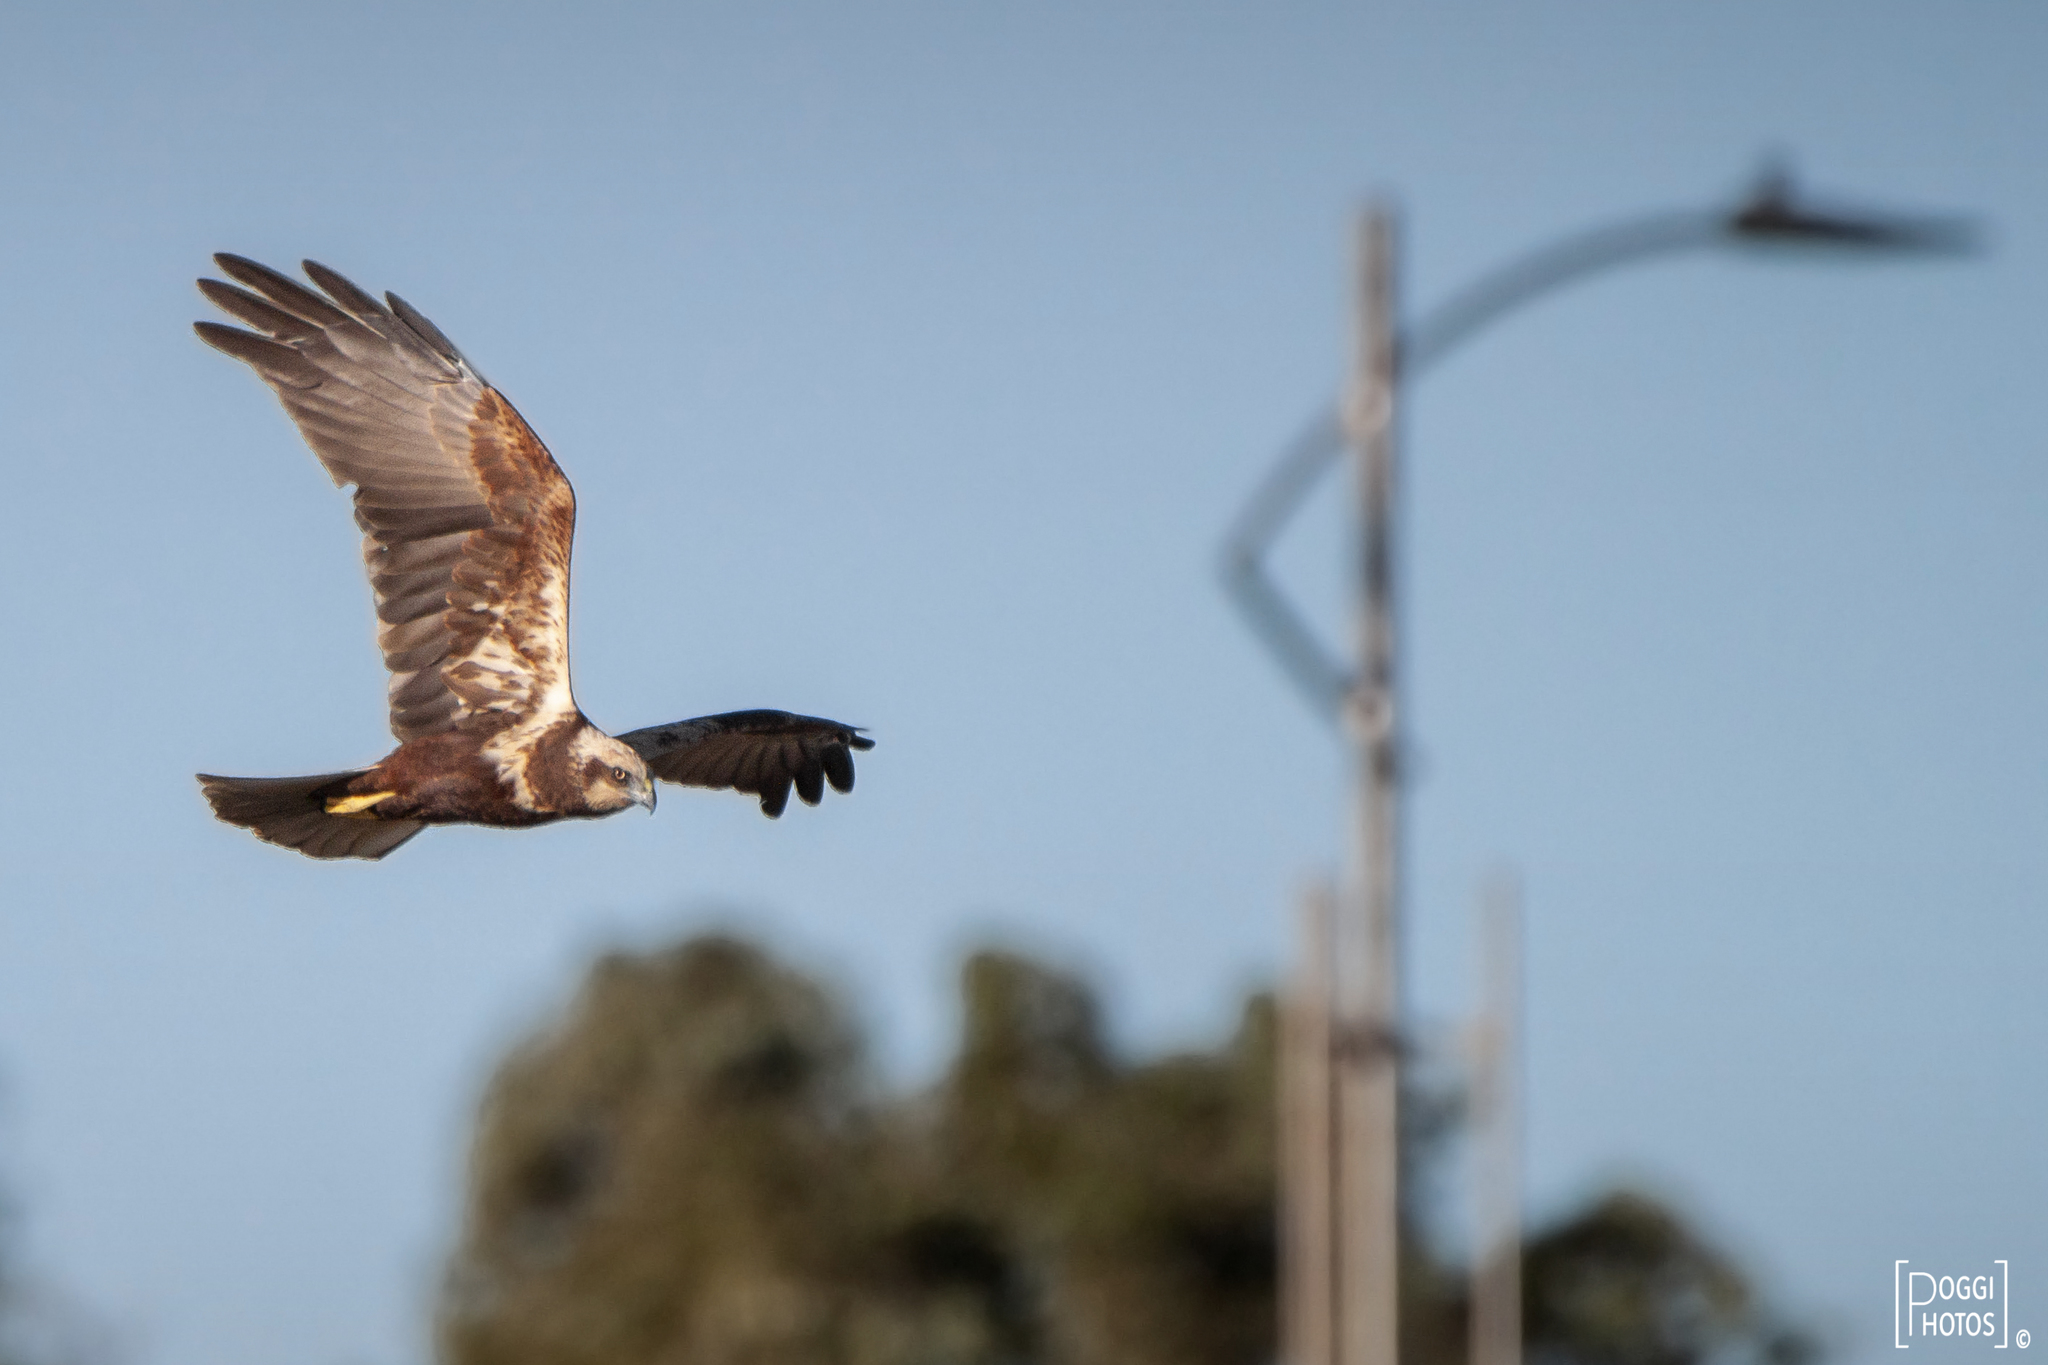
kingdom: Animalia
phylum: Chordata
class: Aves
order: Accipitriformes
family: Accipitridae
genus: Circus
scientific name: Circus aeruginosus
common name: Western marsh harrier
